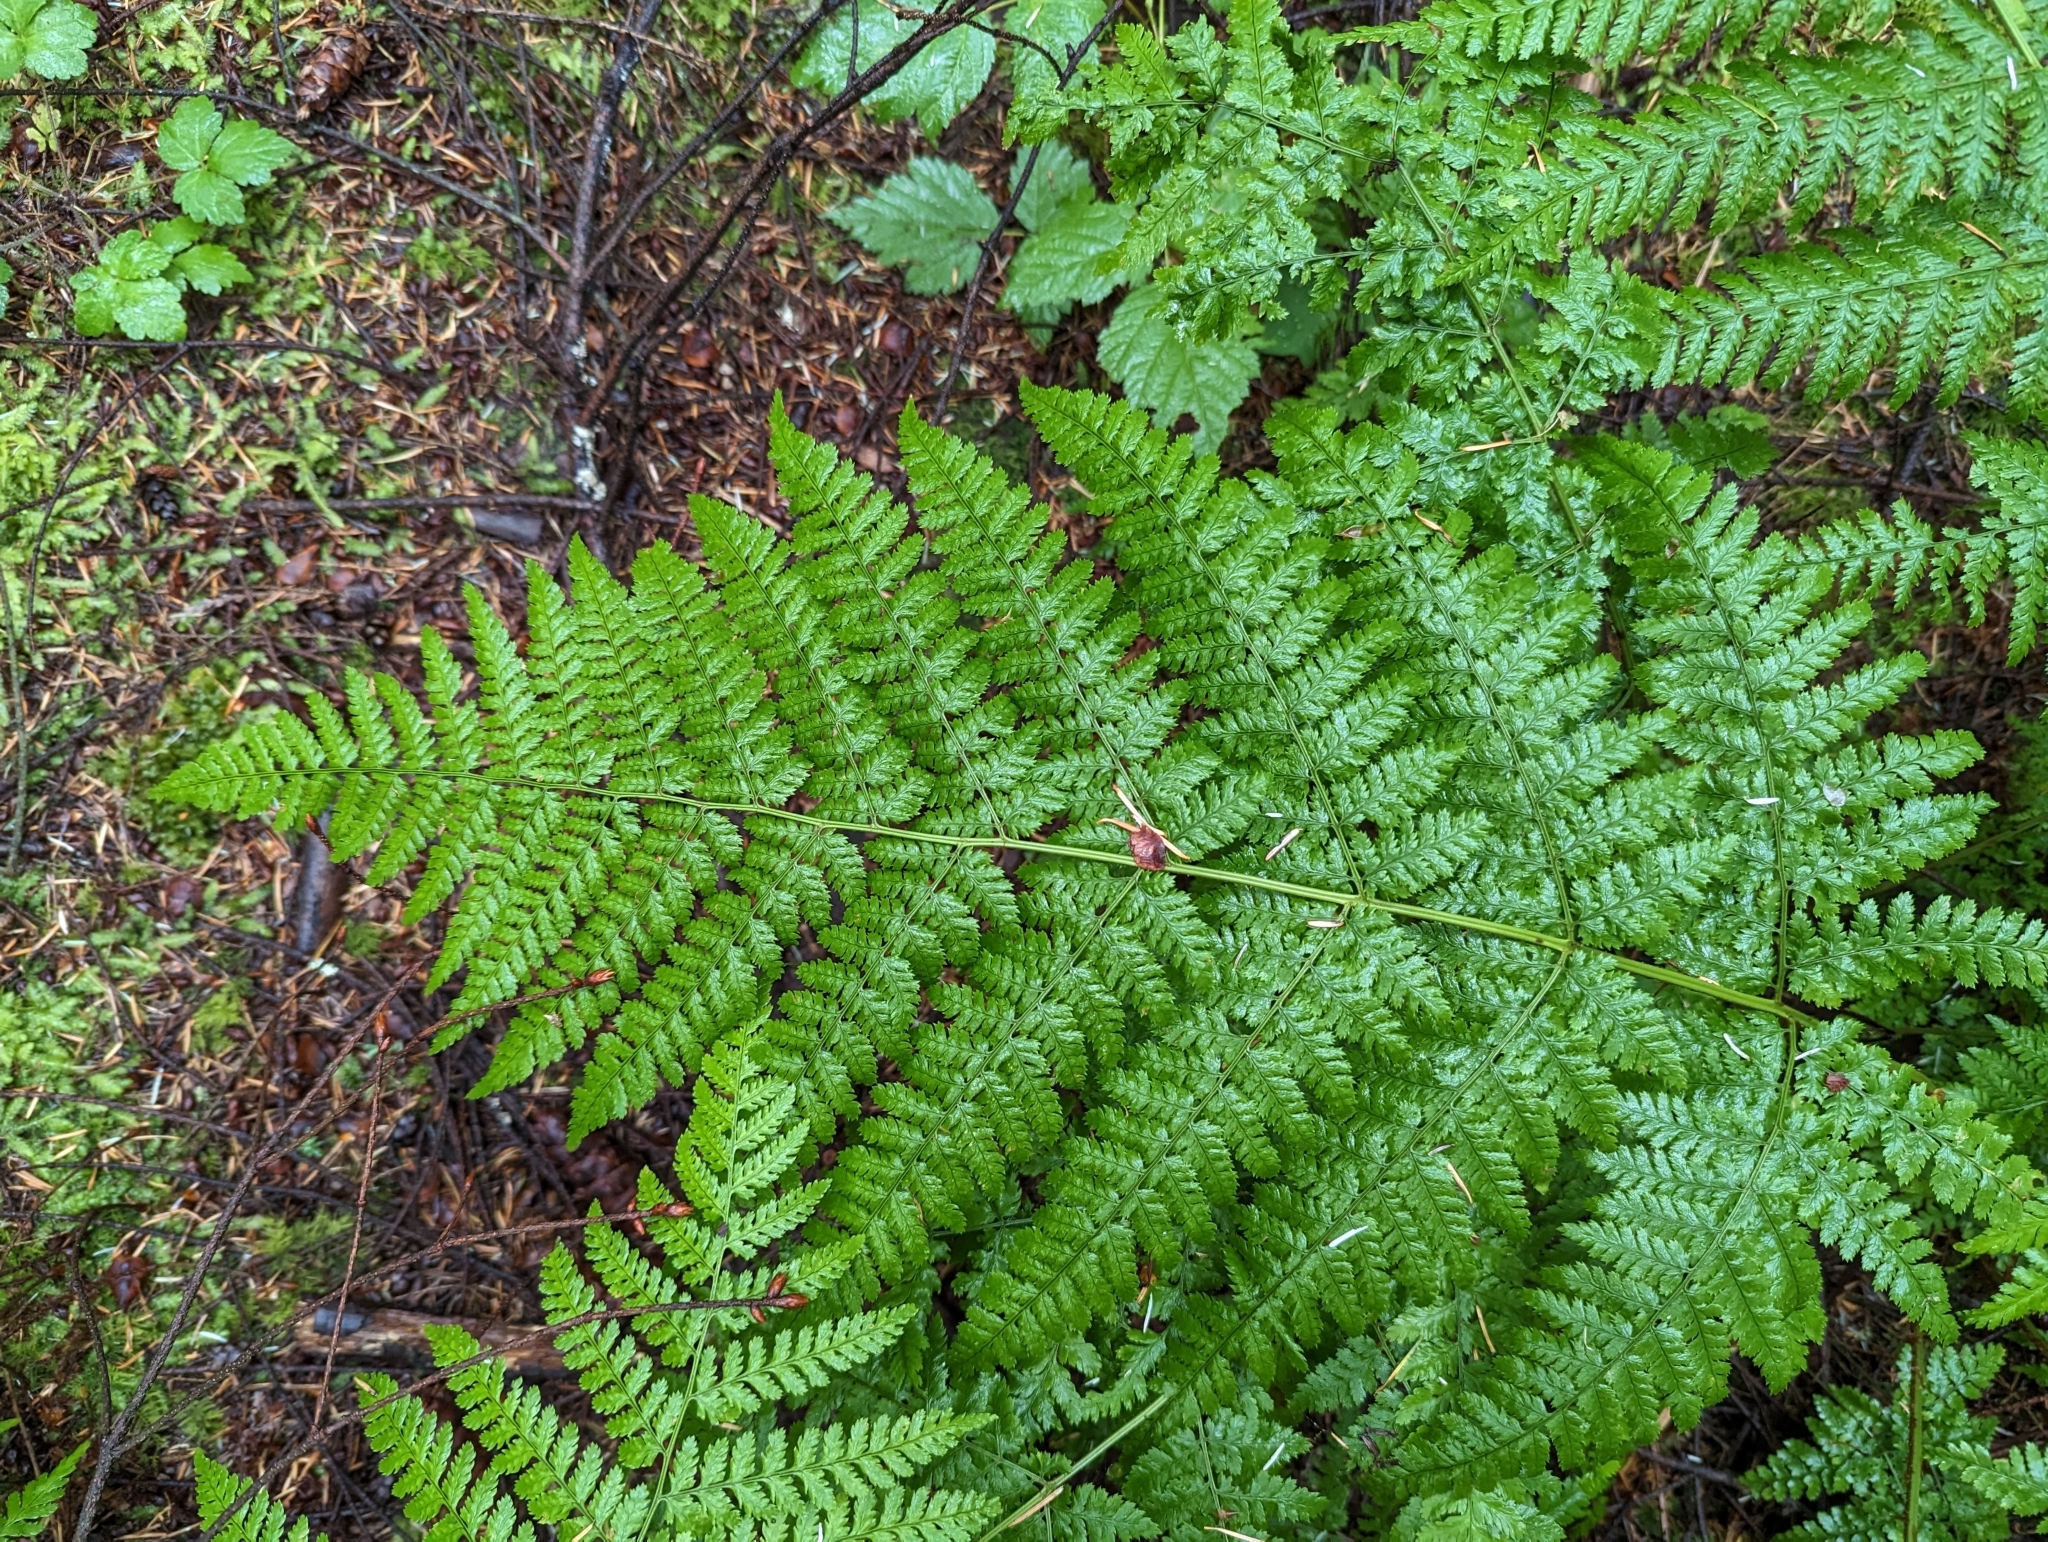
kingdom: Plantae
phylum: Tracheophyta
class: Polypodiopsida
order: Polypodiales
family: Dryopteridaceae
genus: Dryopteris
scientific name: Dryopteris expansa
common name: Northern buckler fern
